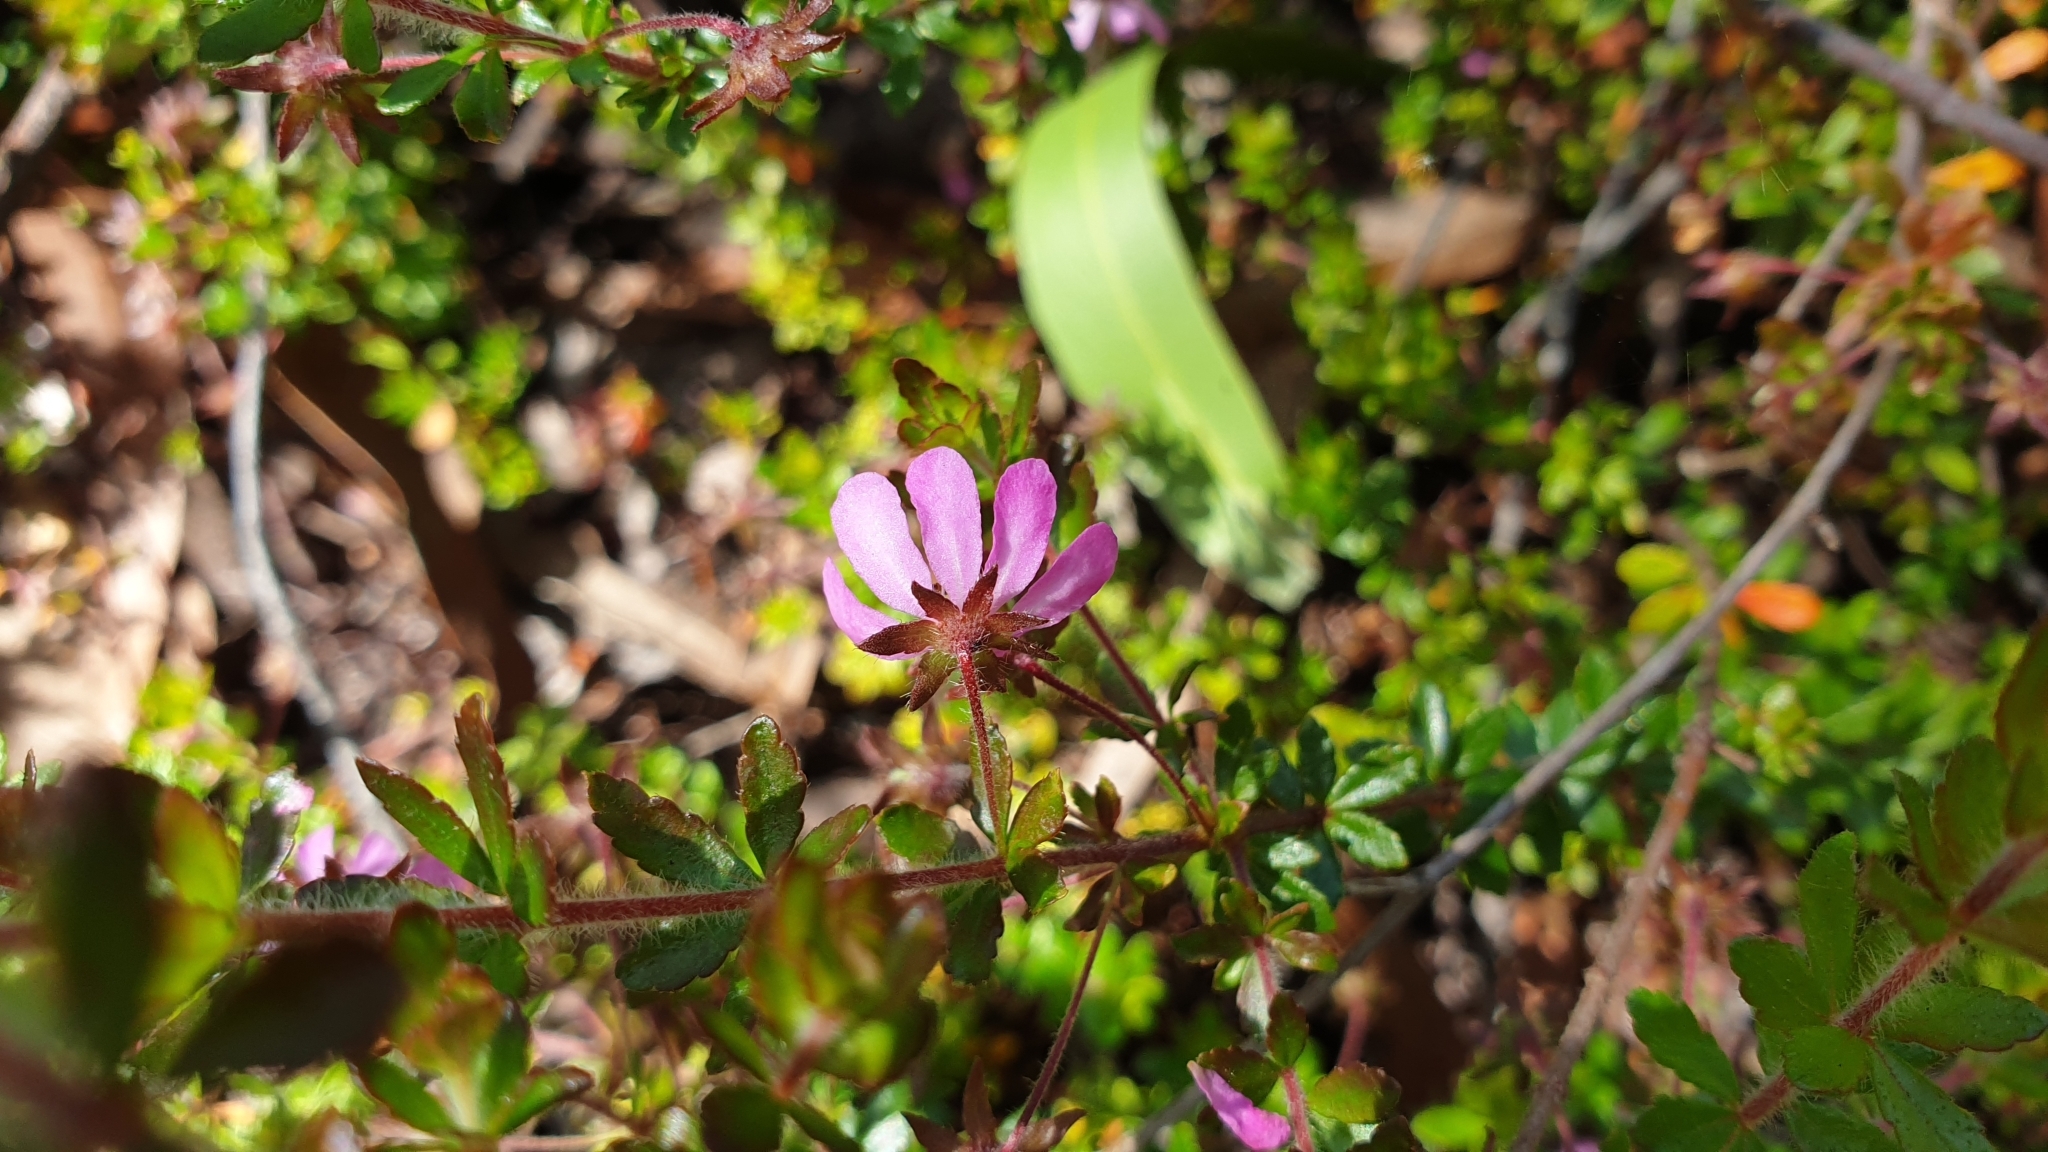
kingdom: Plantae
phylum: Tracheophyta
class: Magnoliopsida
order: Oxalidales
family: Cunoniaceae
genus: Bauera
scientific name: Bauera rubioides
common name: River-rose
